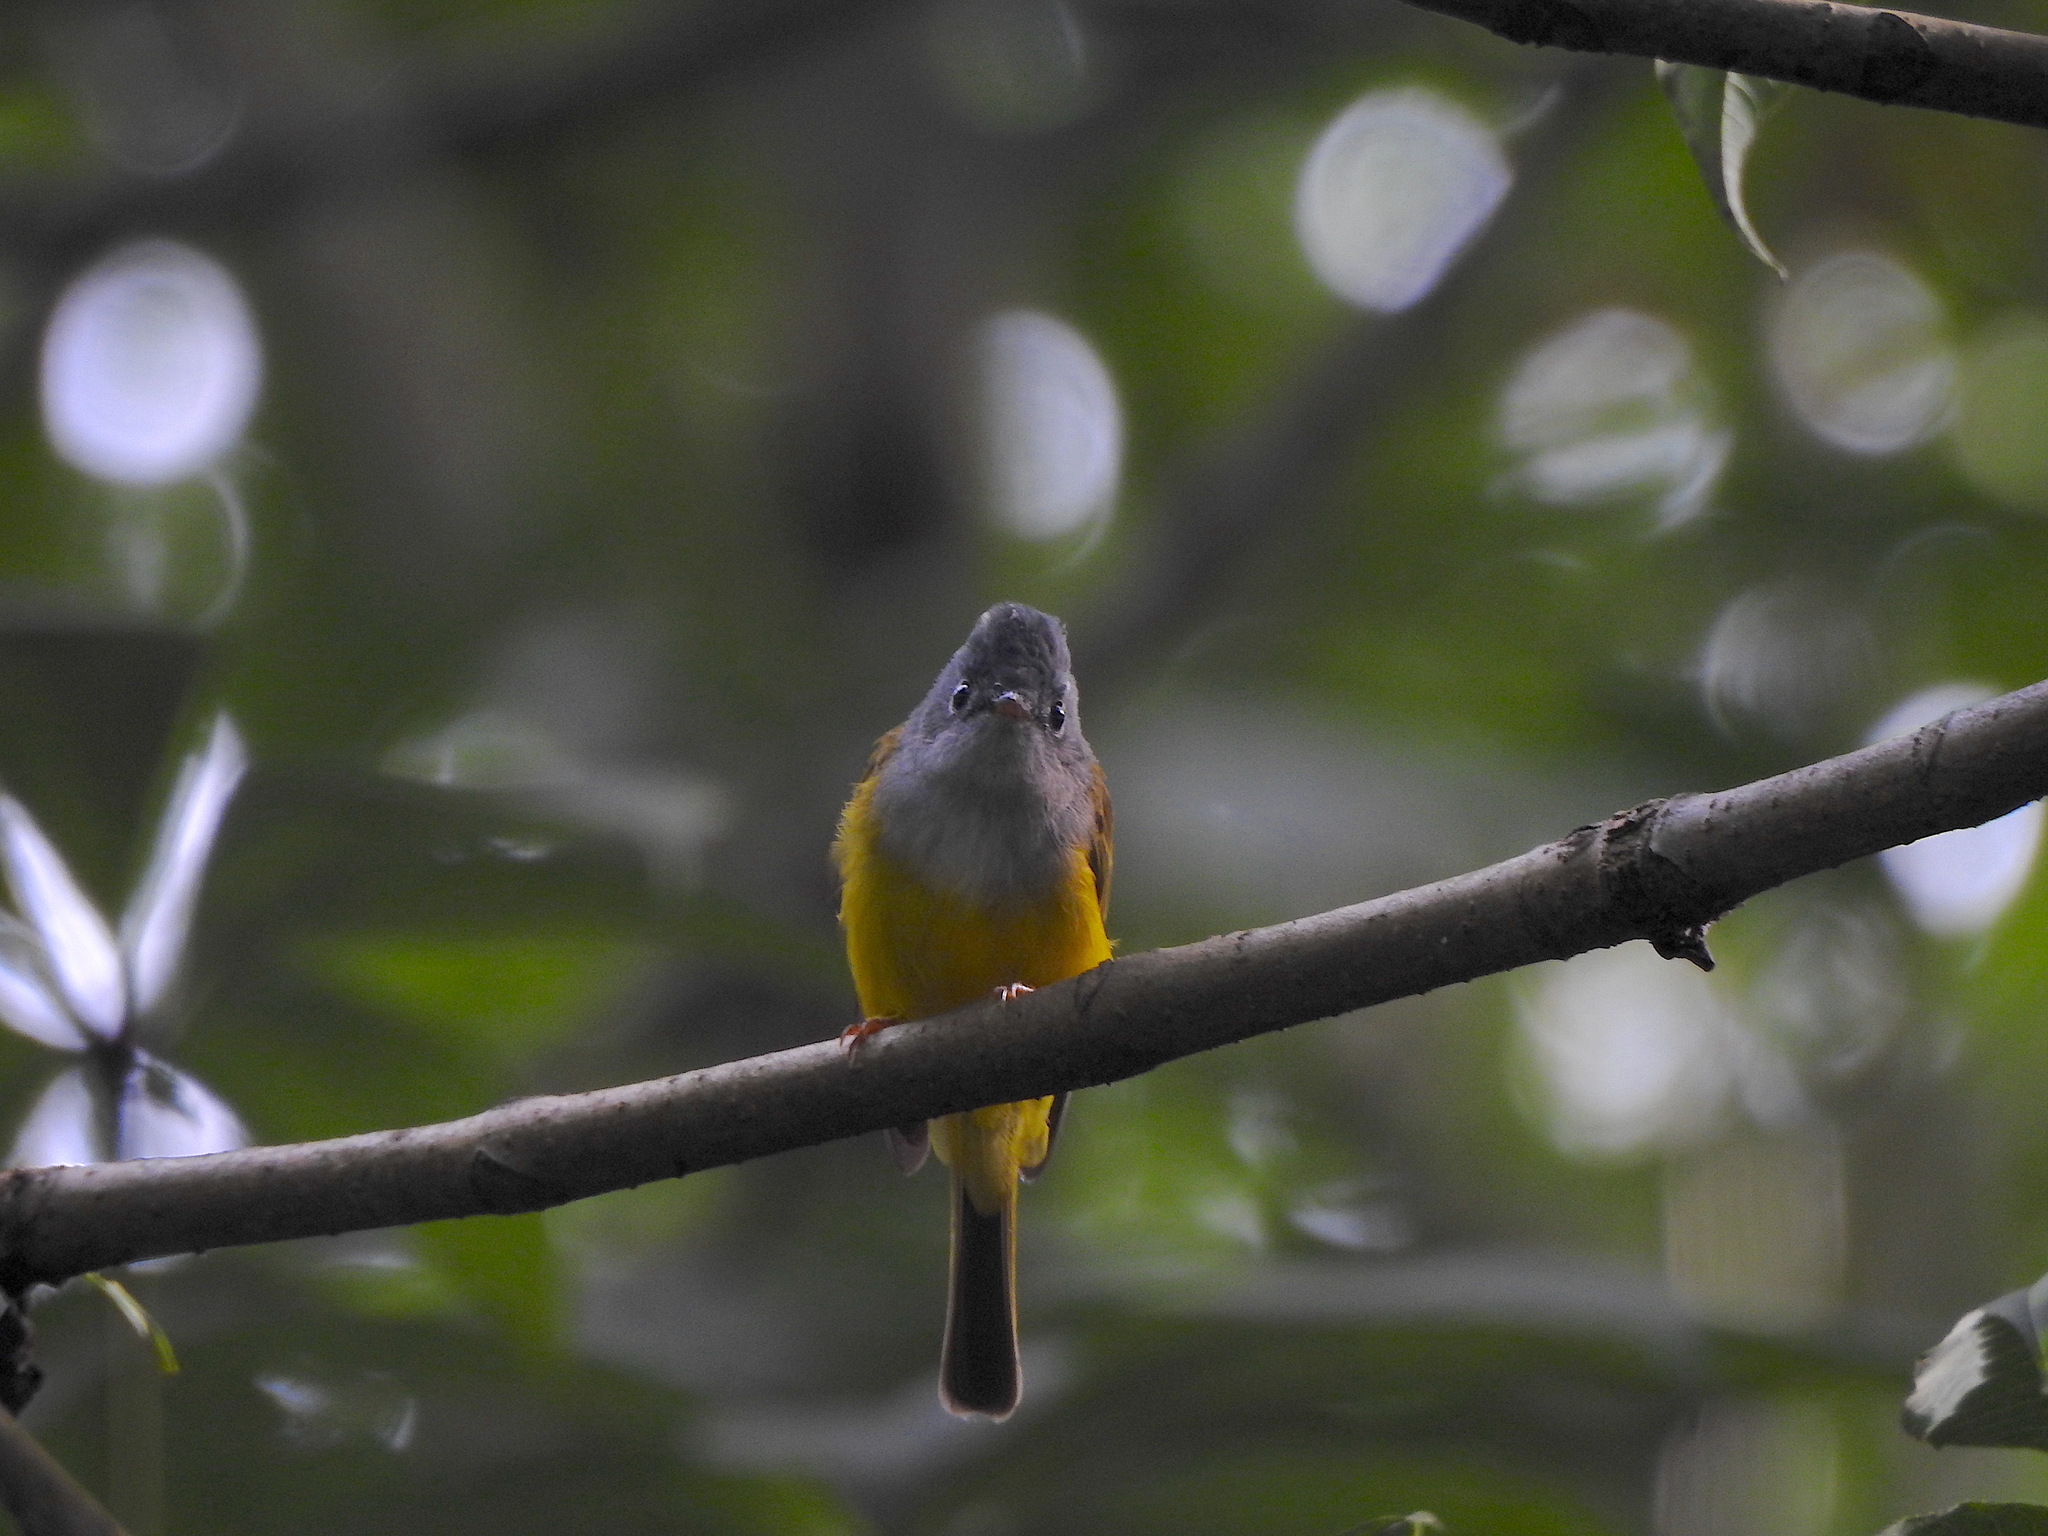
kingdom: Animalia
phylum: Chordata
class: Aves
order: Passeriformes
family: Stenostiridae
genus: Culicicapa
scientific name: Culicicapa ceylonensis
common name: Grey-headed canary-flycatcher
